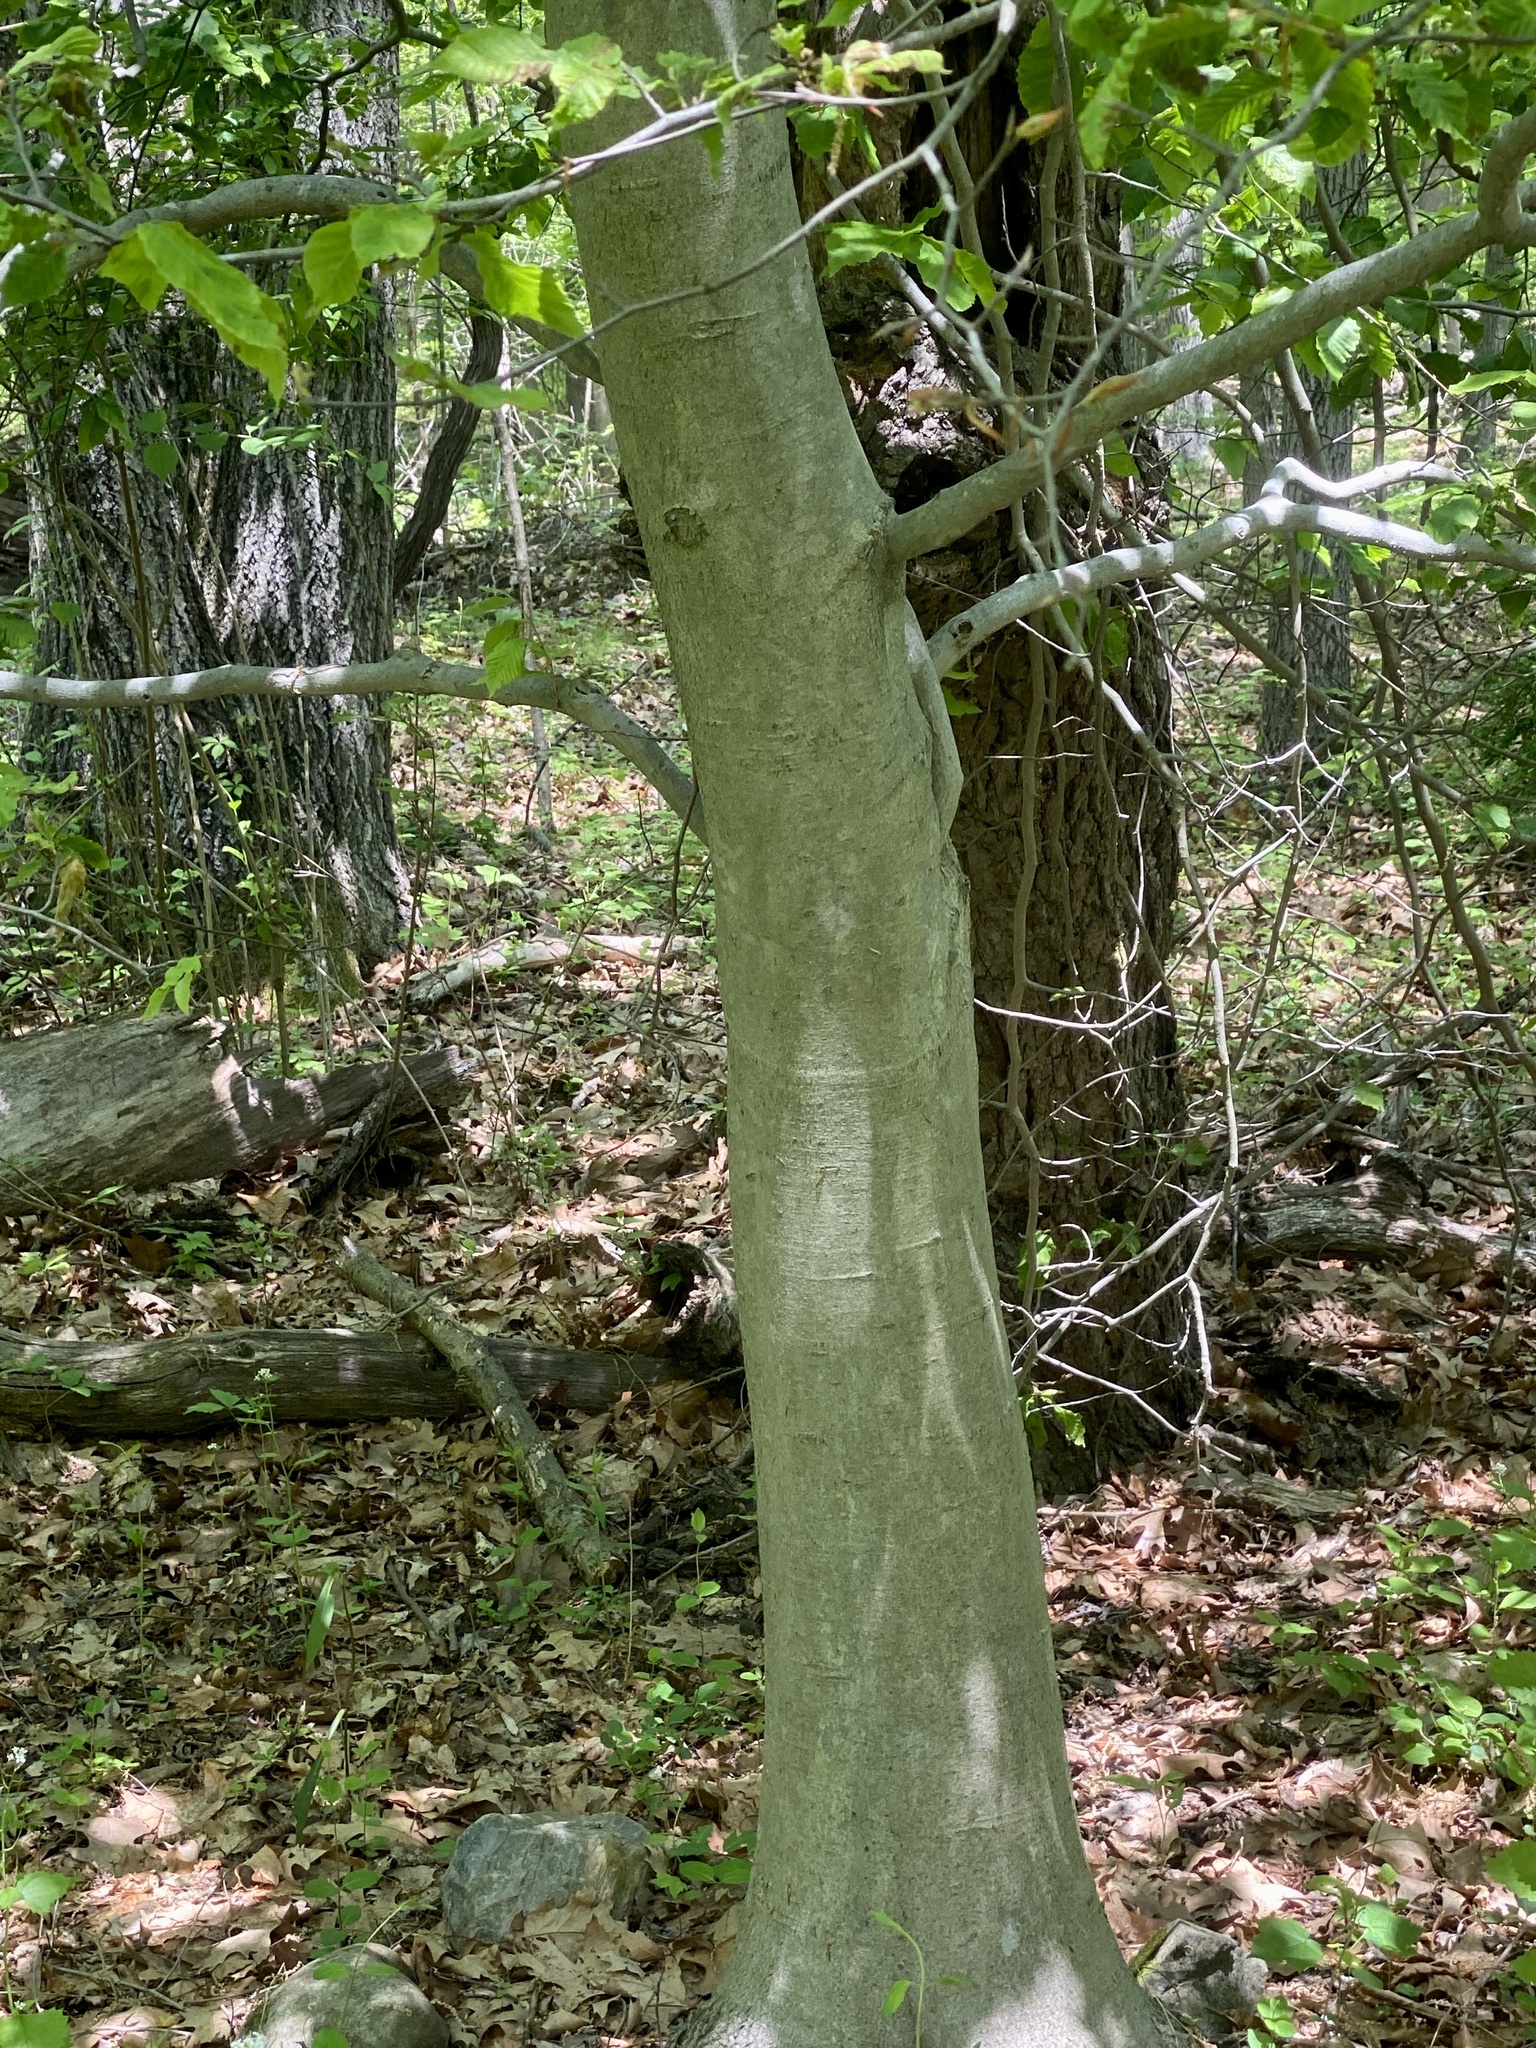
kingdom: Animalia
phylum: Nematoda
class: Chromadorea
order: Rhabditida
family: Anguinidae
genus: Litylenchus
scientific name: Litylenchus crenatae
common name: Beech leaf disease
